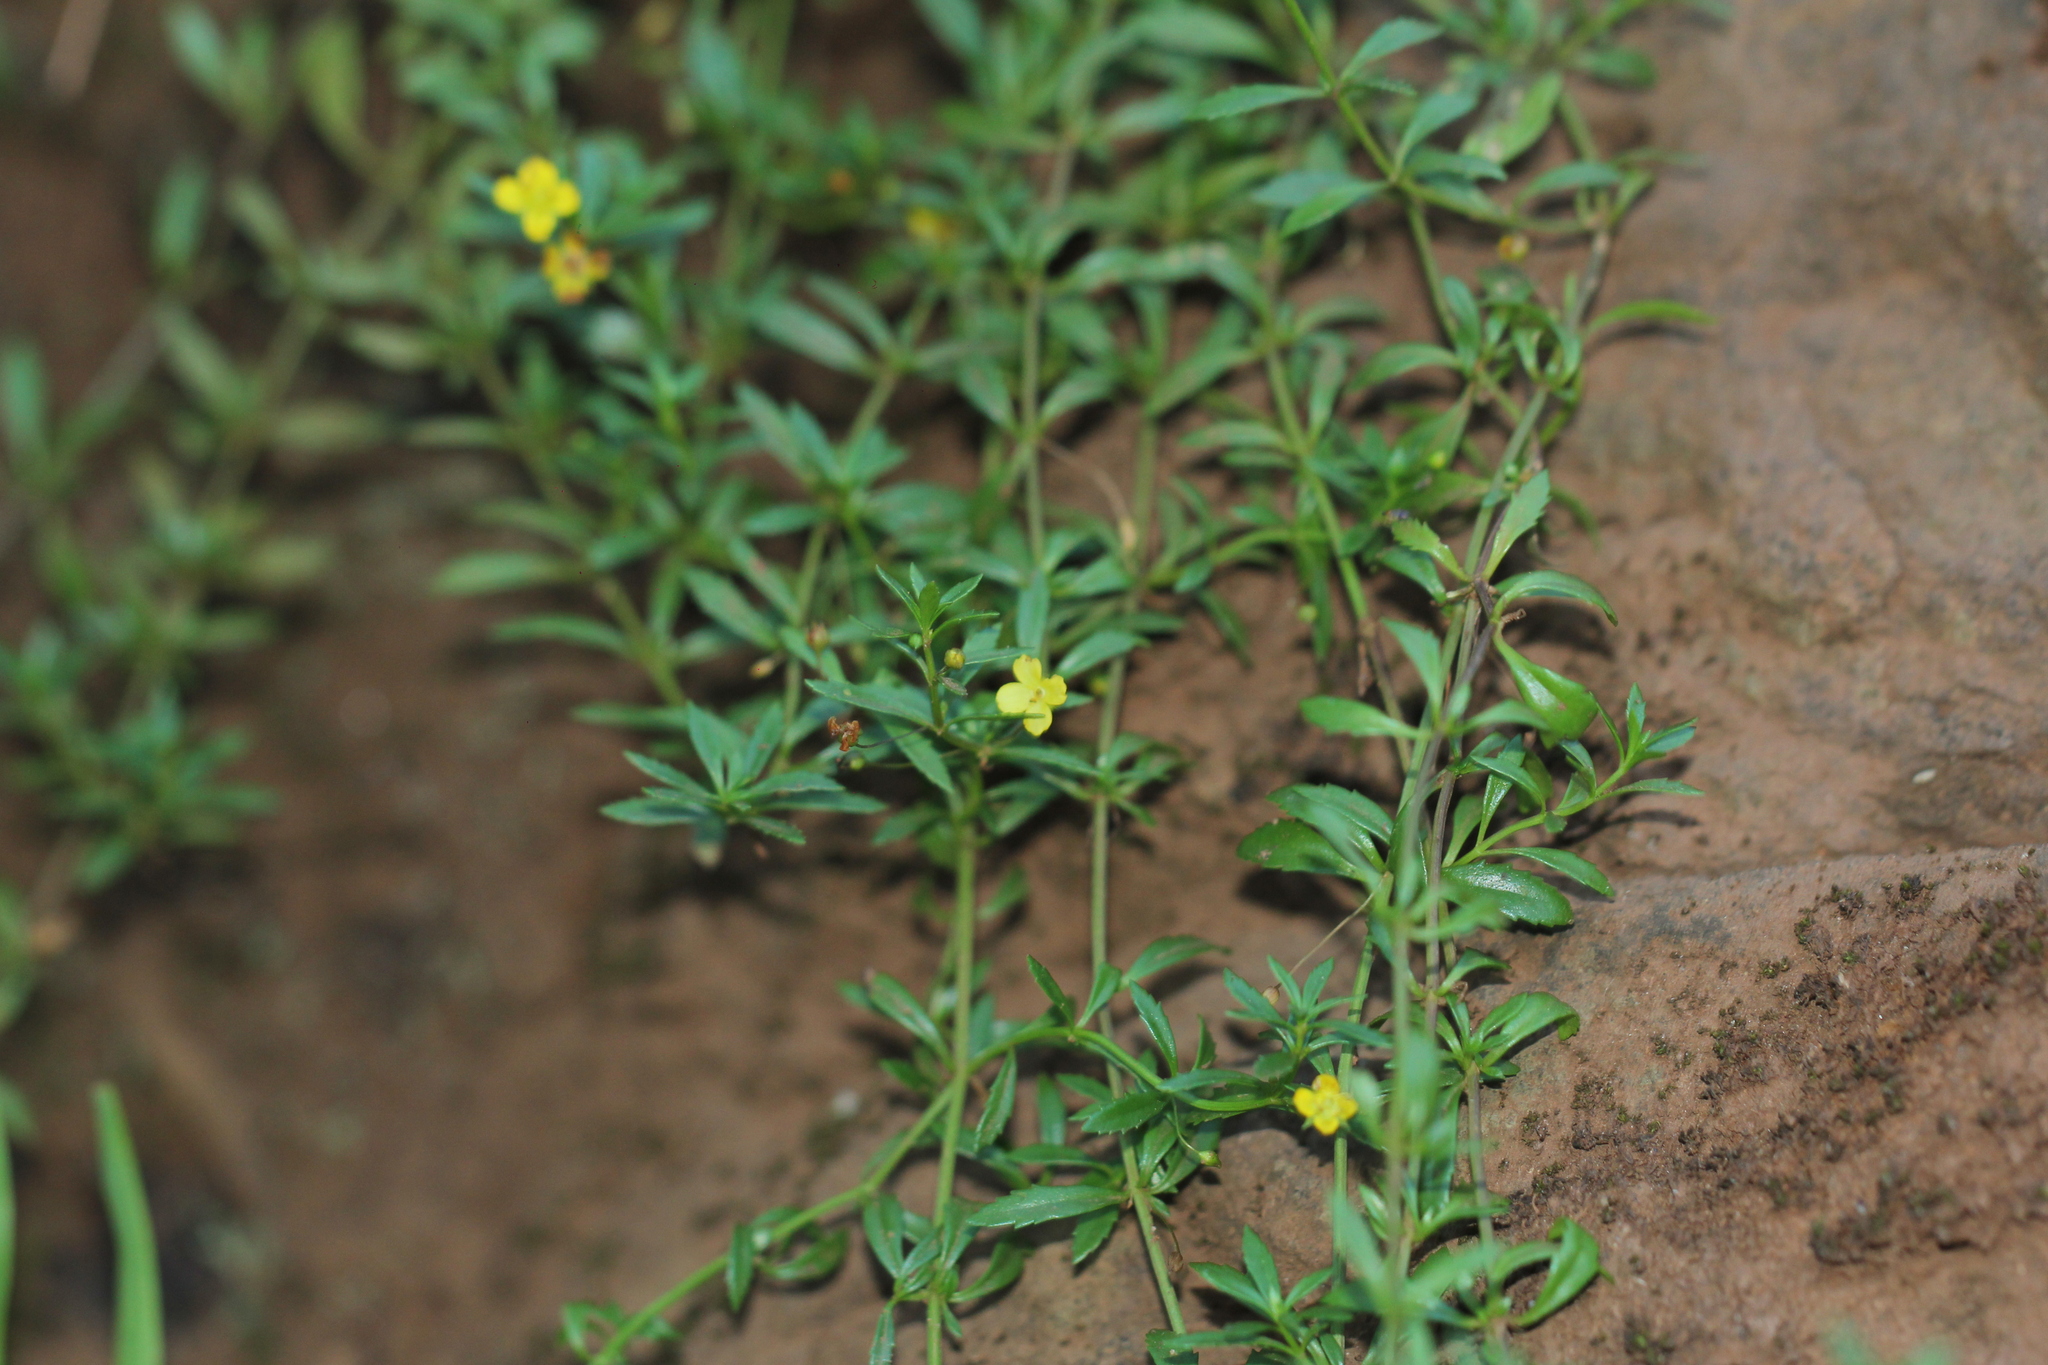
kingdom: Plantae
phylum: Tracheophyta
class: Magnoliopsida
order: Lamiales
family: Plantaginaceae
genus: Scoparia
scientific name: Scoparia montevidensis
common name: Broomwort
